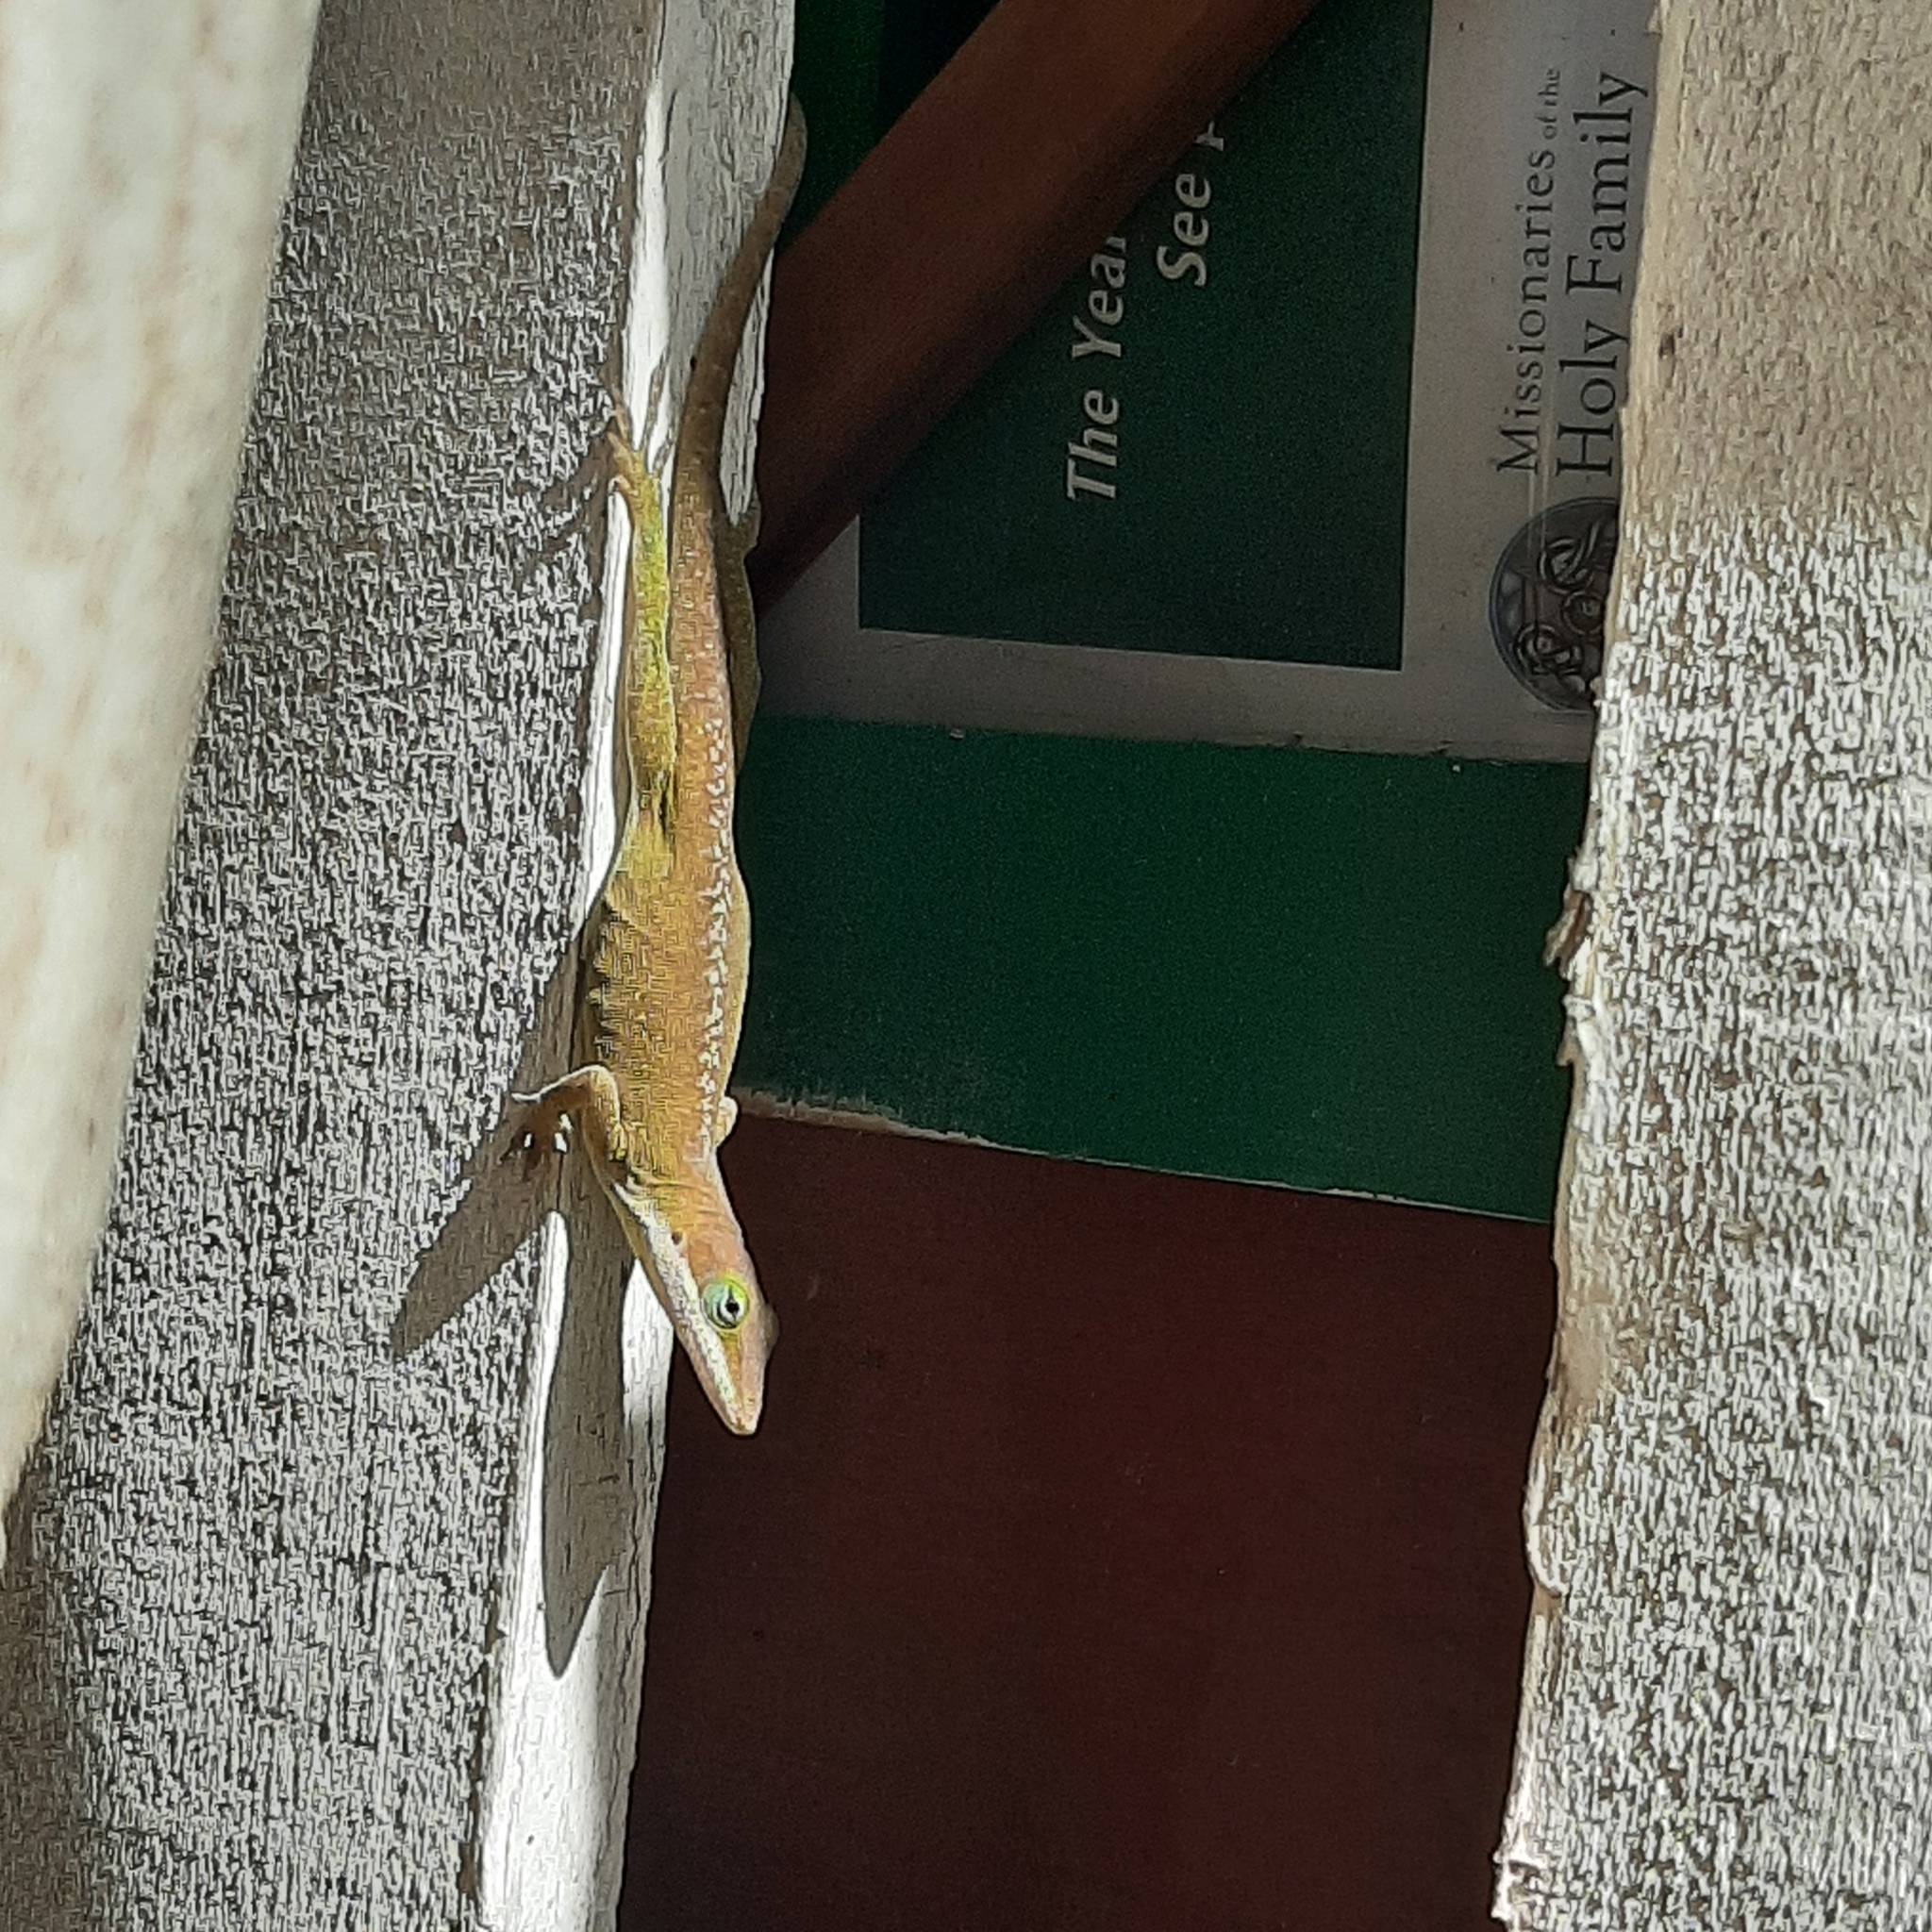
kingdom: Animalia
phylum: Chordata
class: Squamata
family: Dactyloidae
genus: Anolis
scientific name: Anolis carolinensis
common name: Green anole
